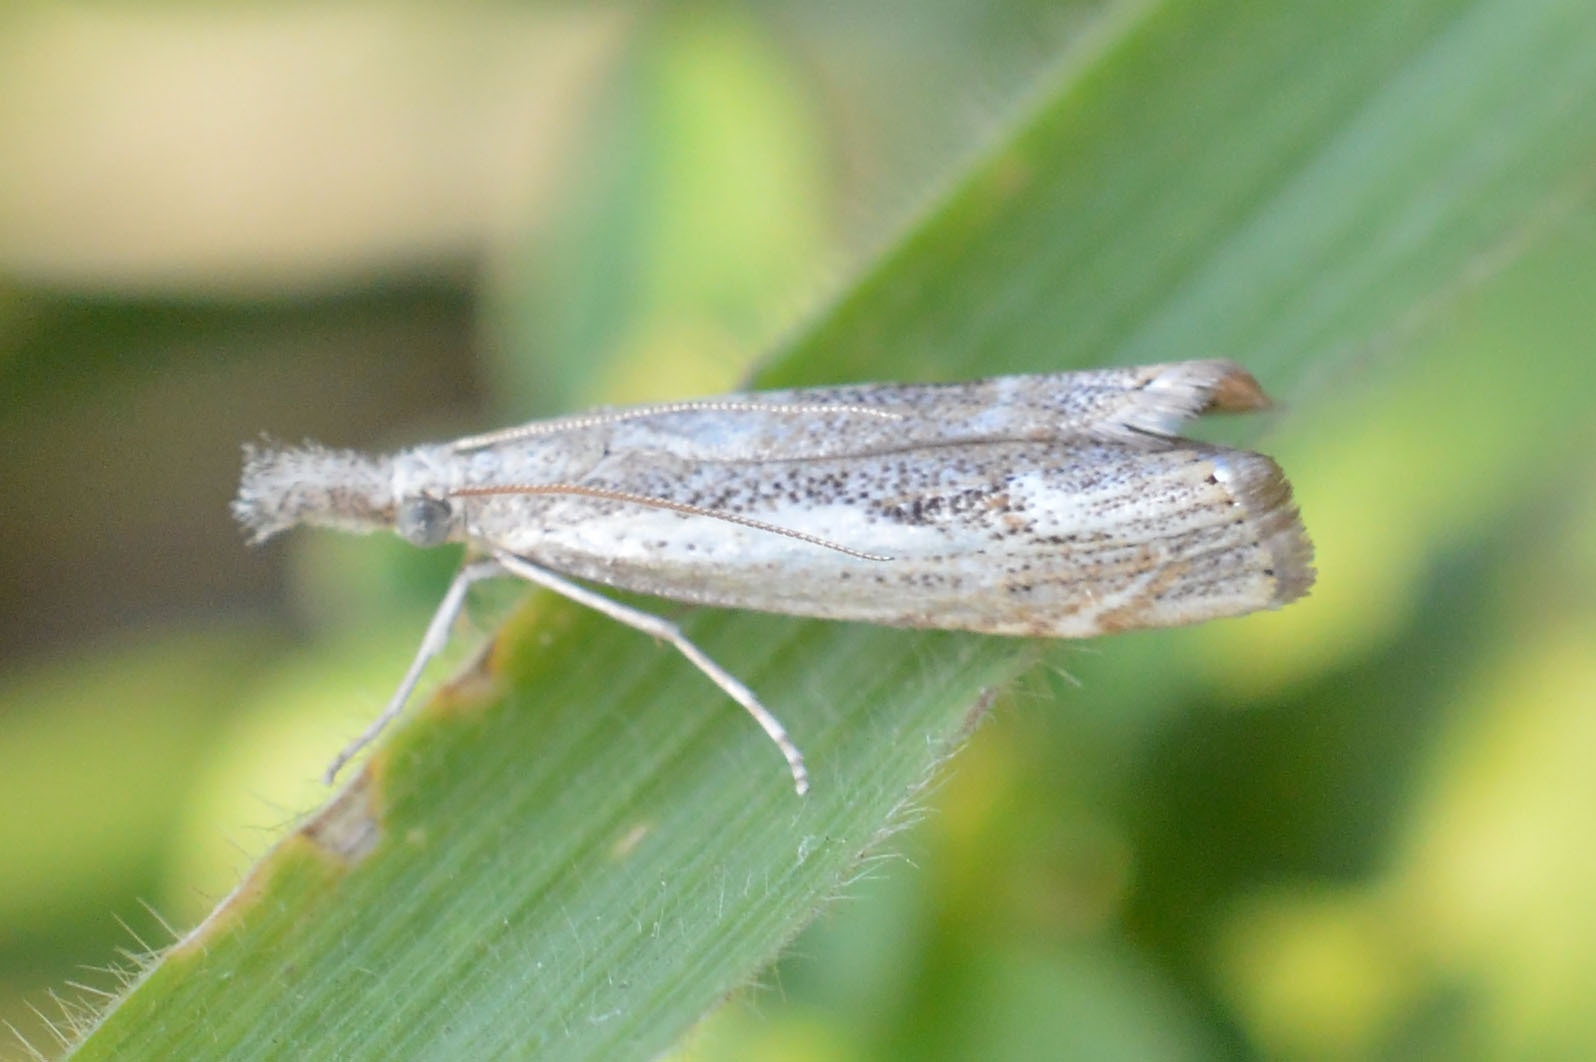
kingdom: Animalia
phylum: Arthropoda
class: Insecta
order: Lepidoptera
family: Crambidae
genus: Agriphila
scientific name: Agriphila tolli
